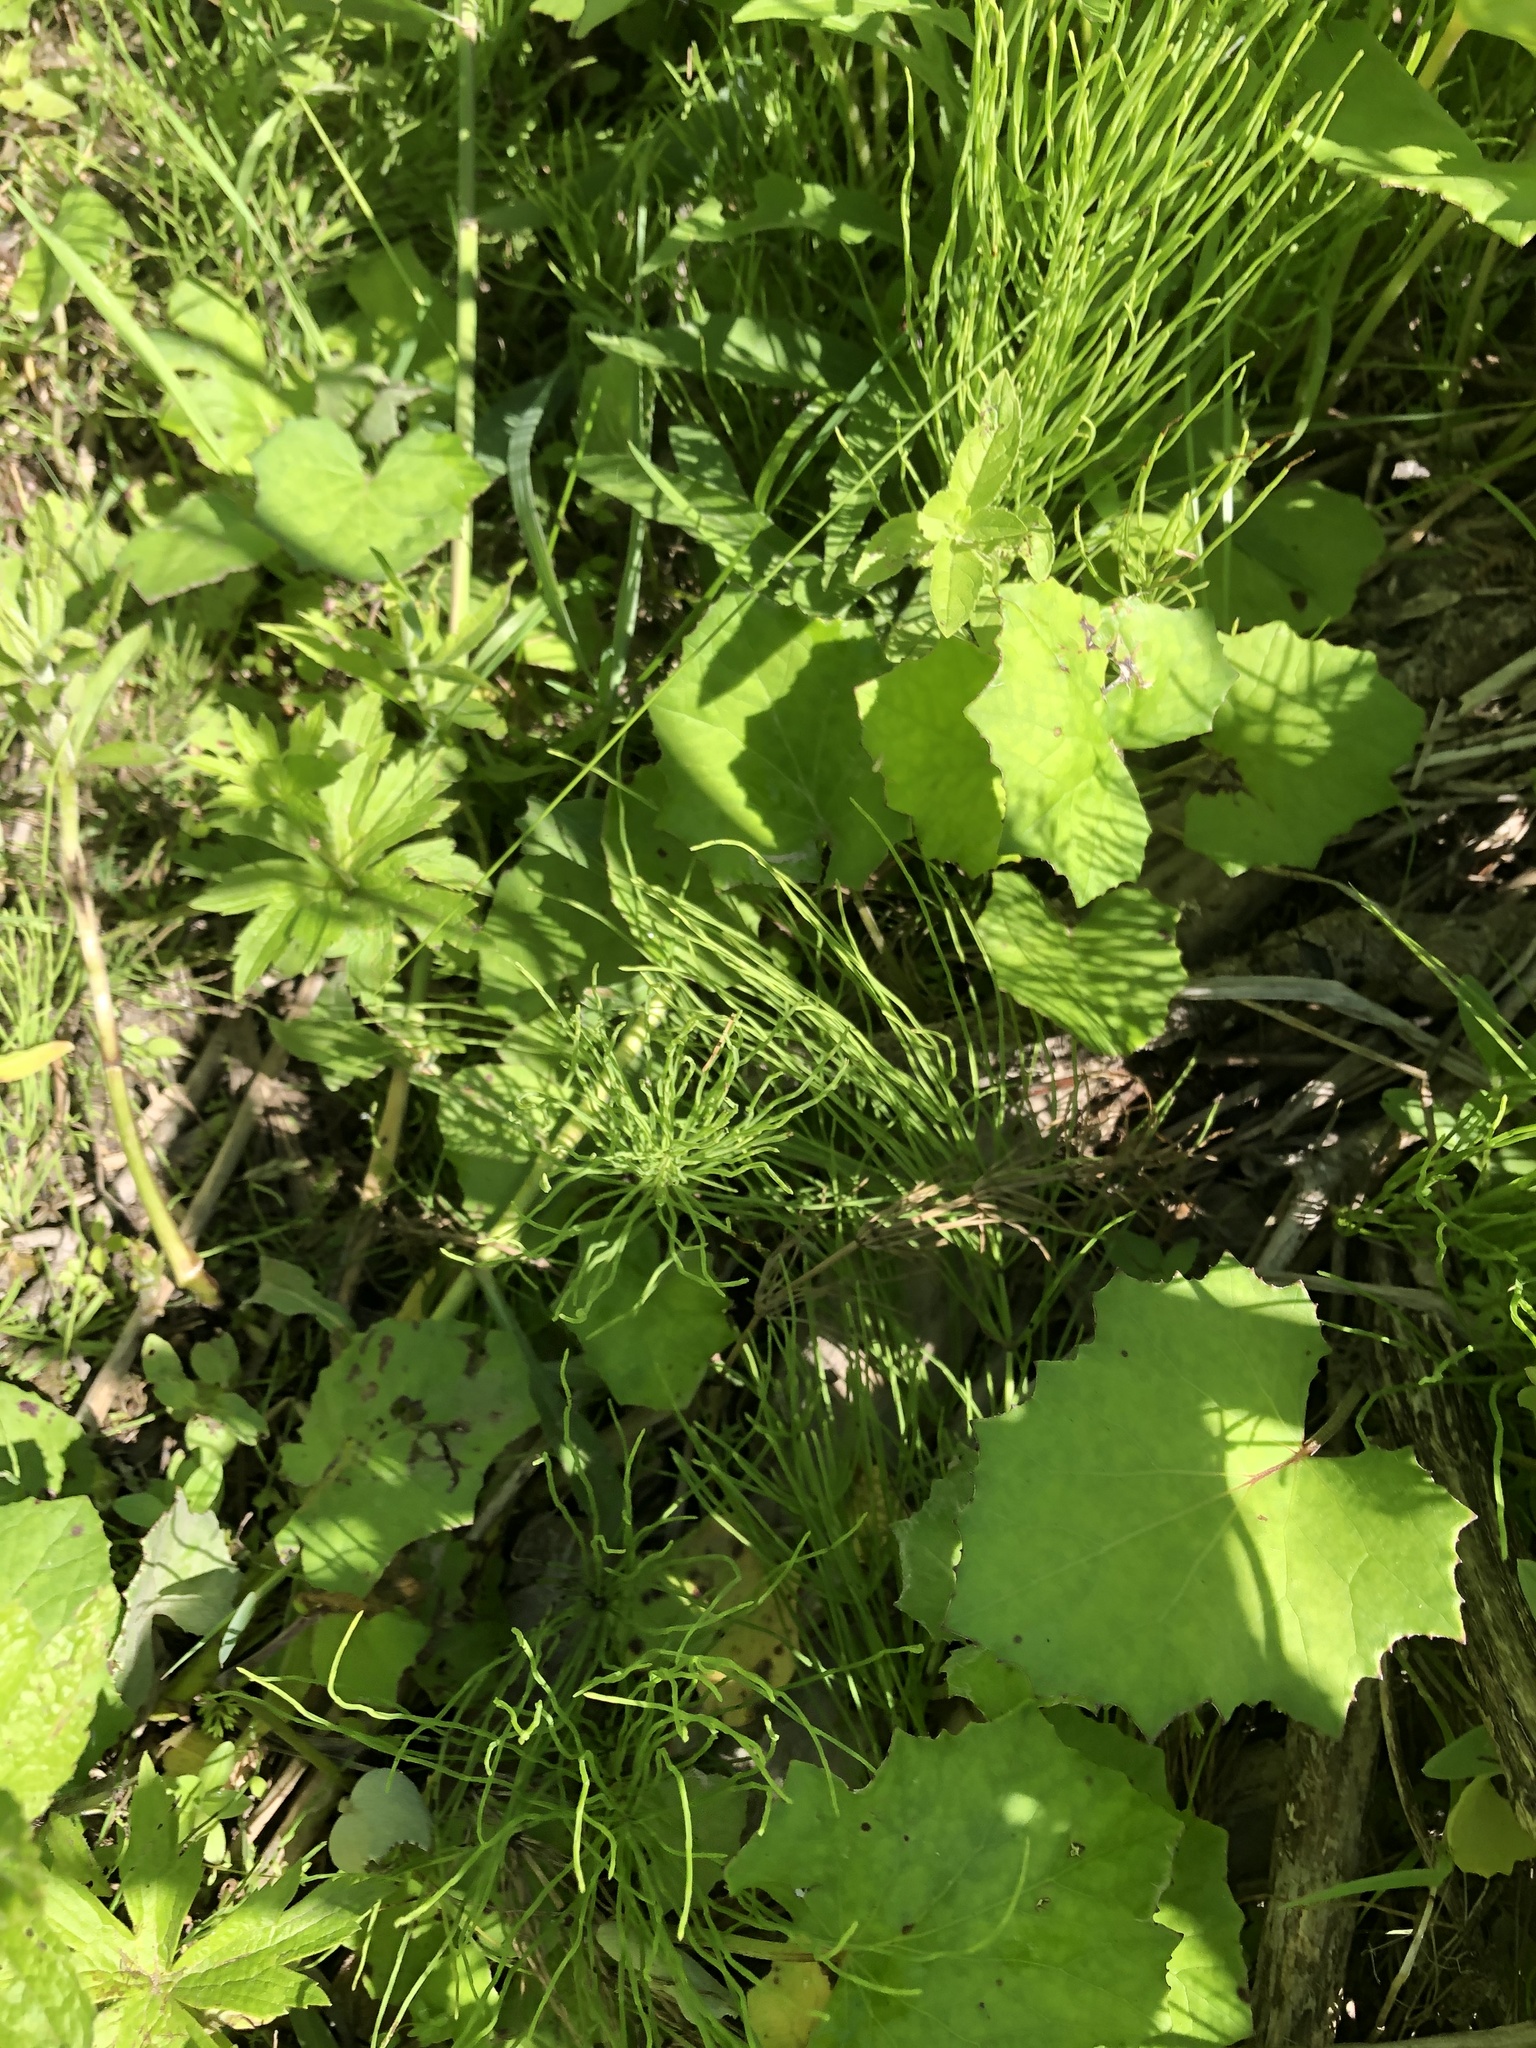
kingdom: Plantae
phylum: Tracheophyta
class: Magnoliopsida
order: Asterales
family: Asteraceae
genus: Tussilago
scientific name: Tussilago farfara
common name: Coltsfoot
